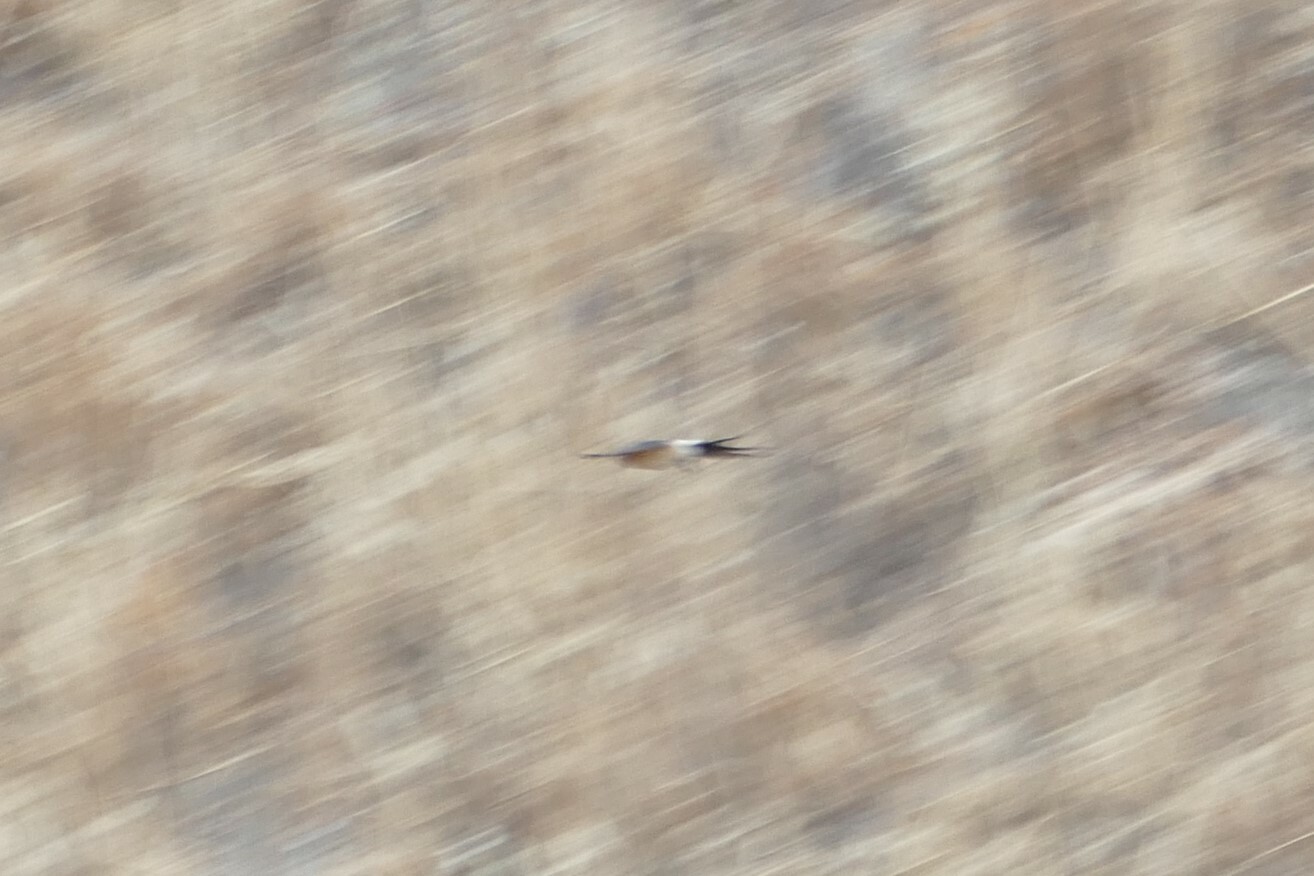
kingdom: Animalia
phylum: Chordata
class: Aves
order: Passeriformes
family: Hirundinidae
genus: Cecropis
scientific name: Cecropis daurica
